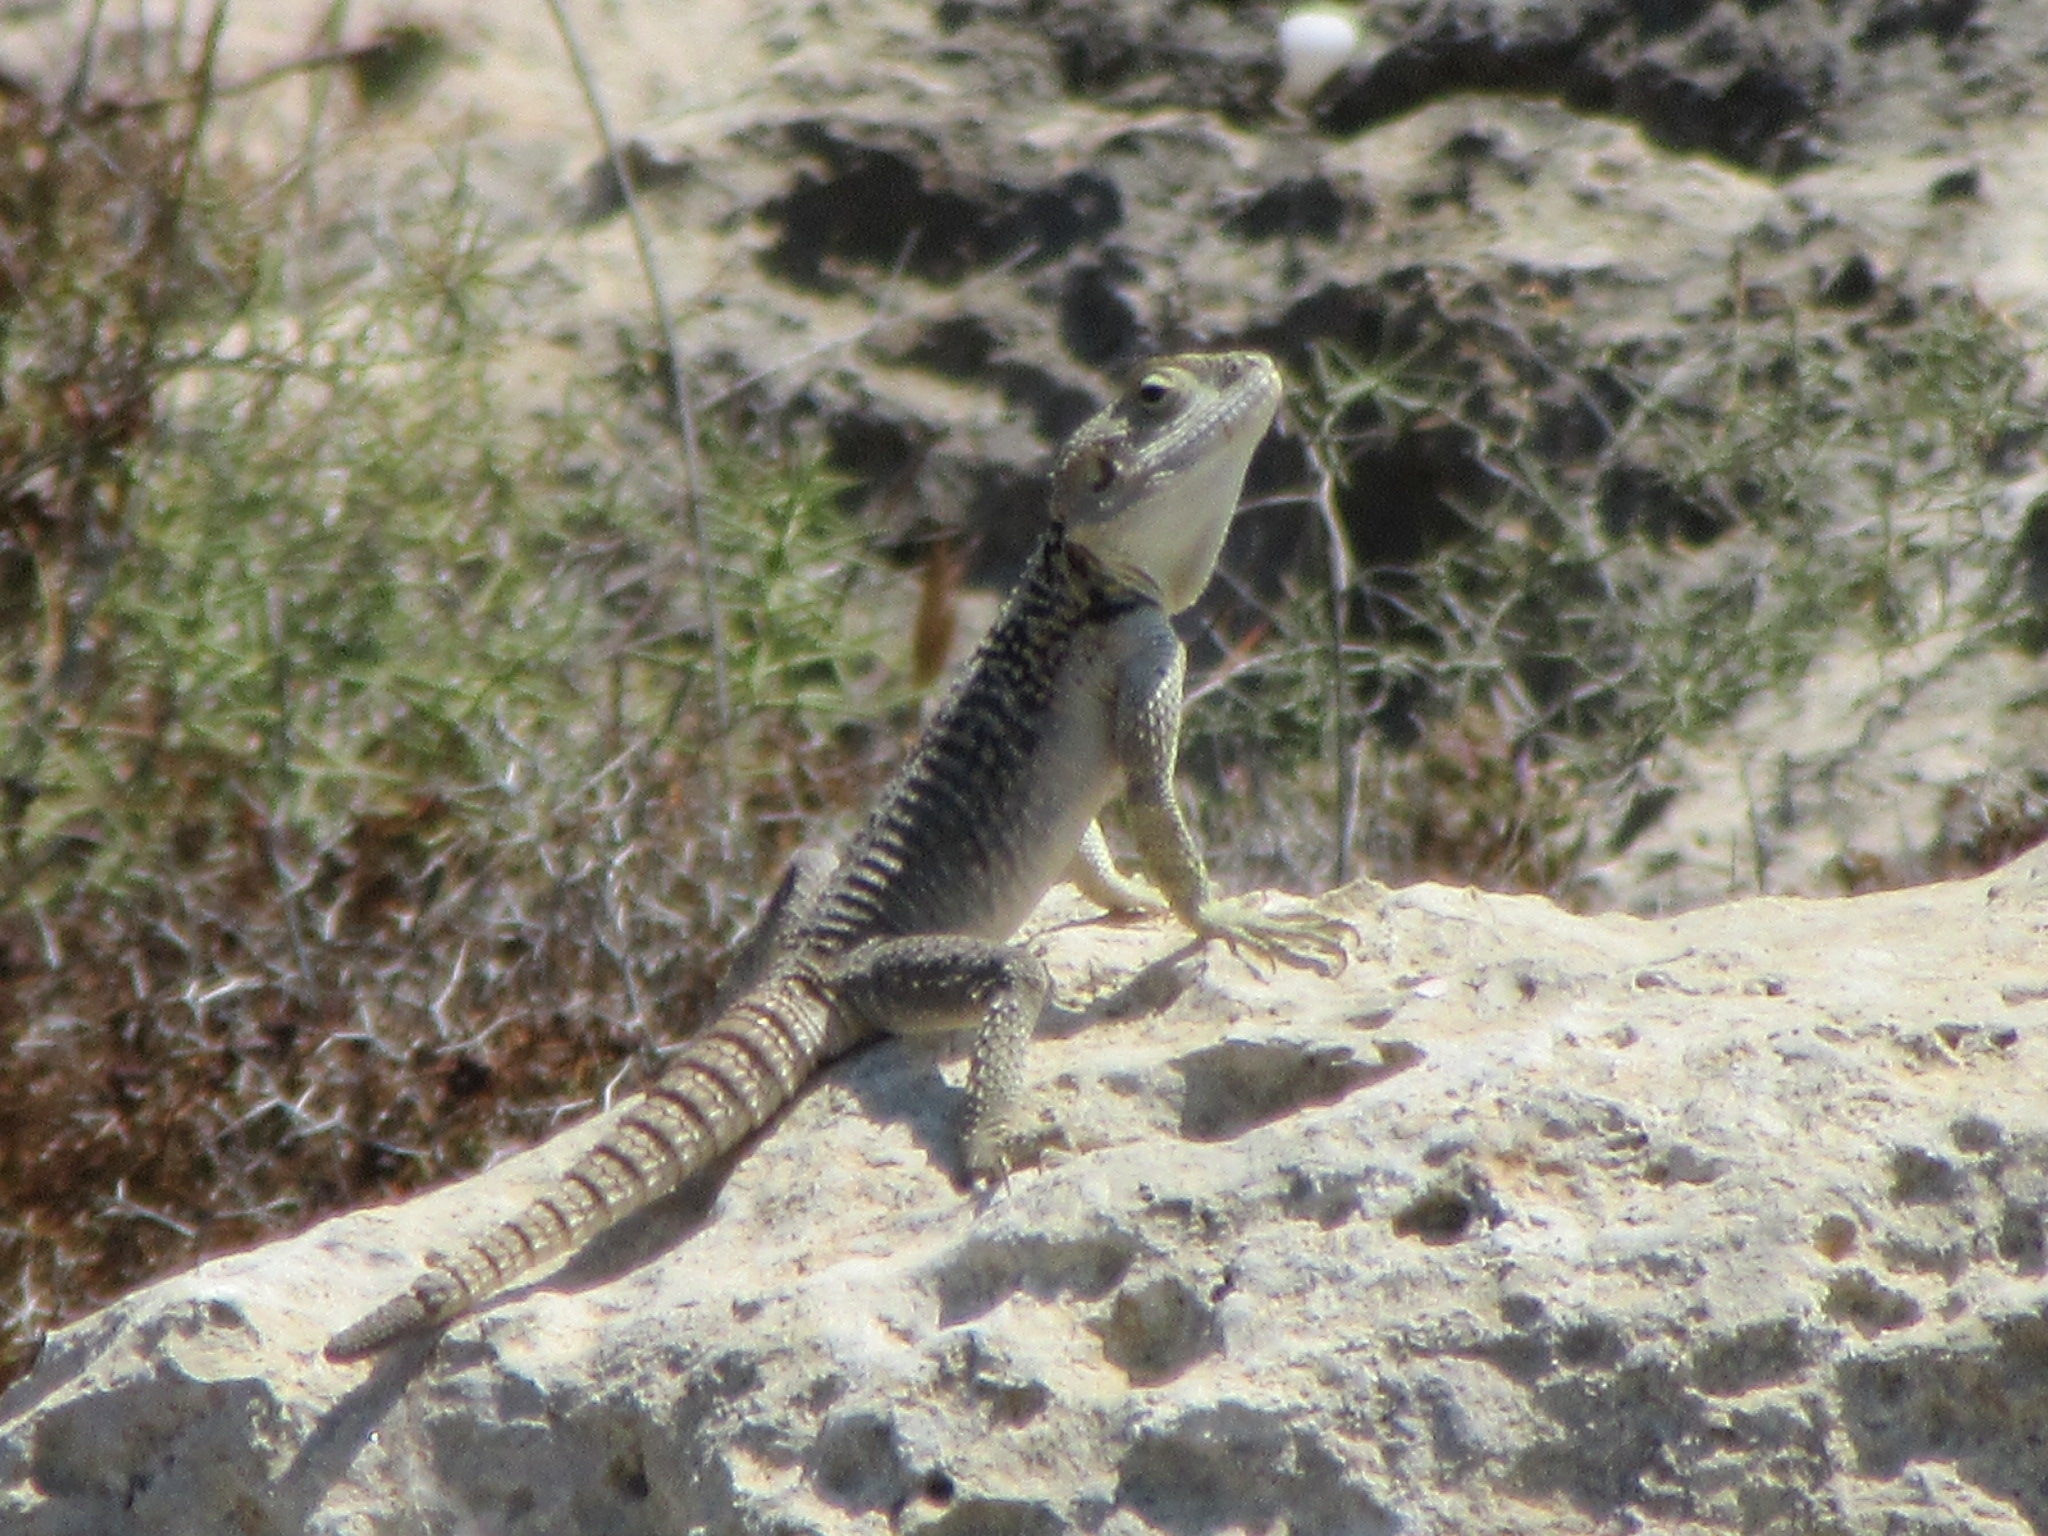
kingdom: Animalia
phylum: Chordata
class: Squamata
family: Agamidae
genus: Laudakia
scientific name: Laudakia
